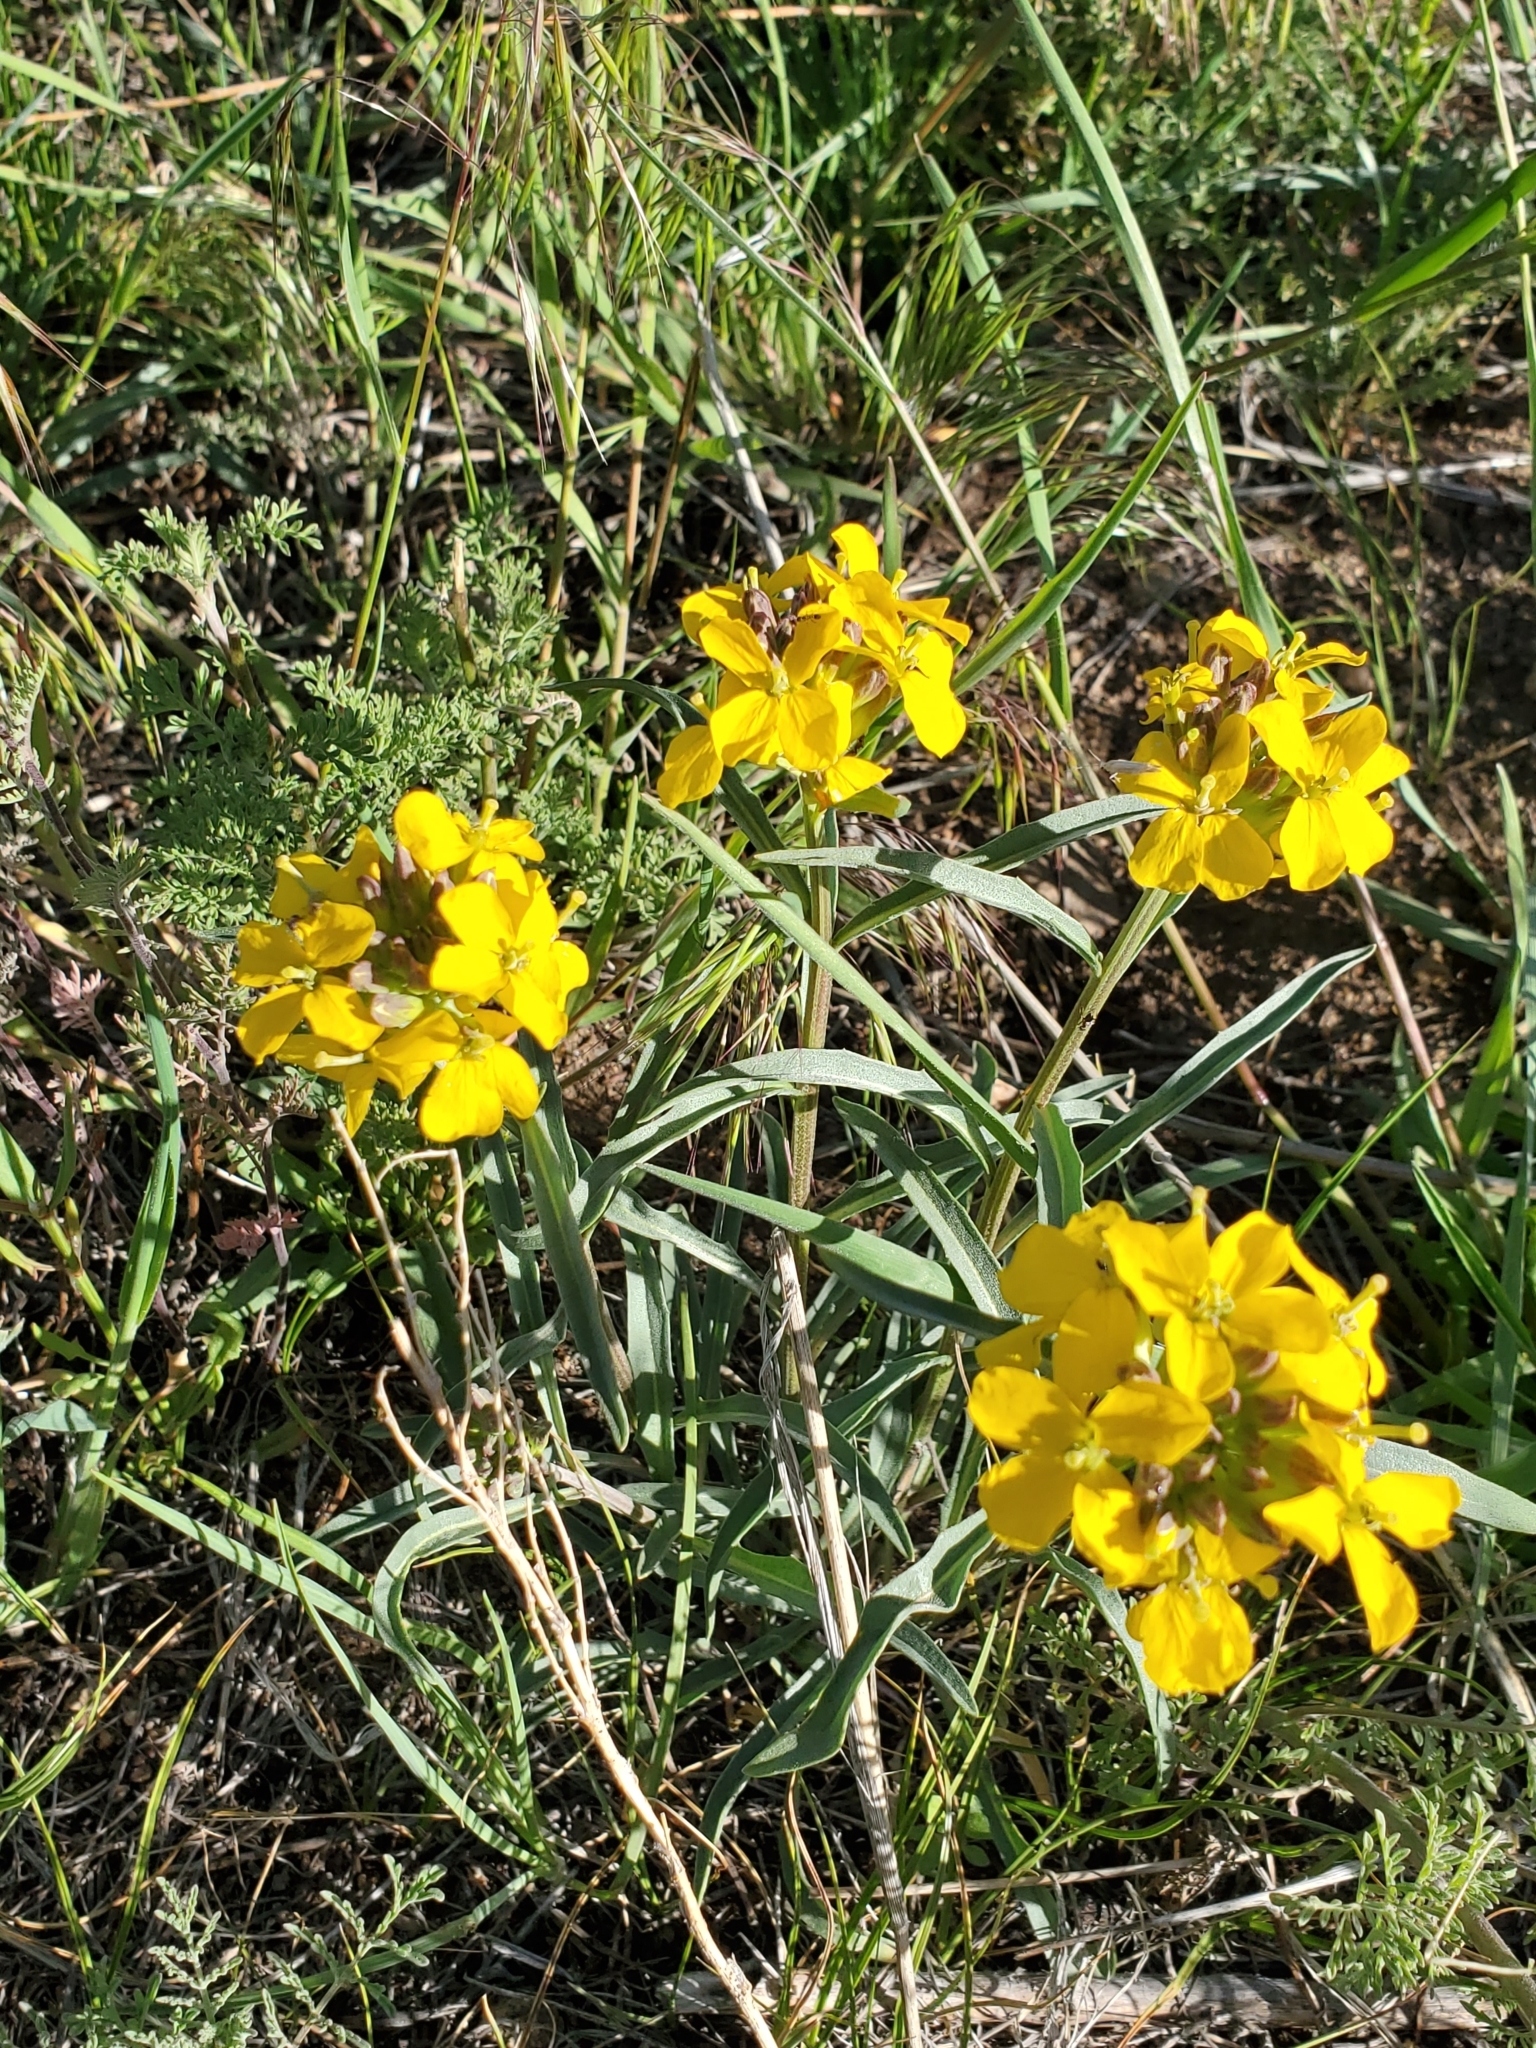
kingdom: Plantae
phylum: Tracheophyta
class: Magnoliopsida
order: Brassicales
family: Brassicaceae
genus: Erysimum
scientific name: Erysimum capitatum
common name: Western wallflower
